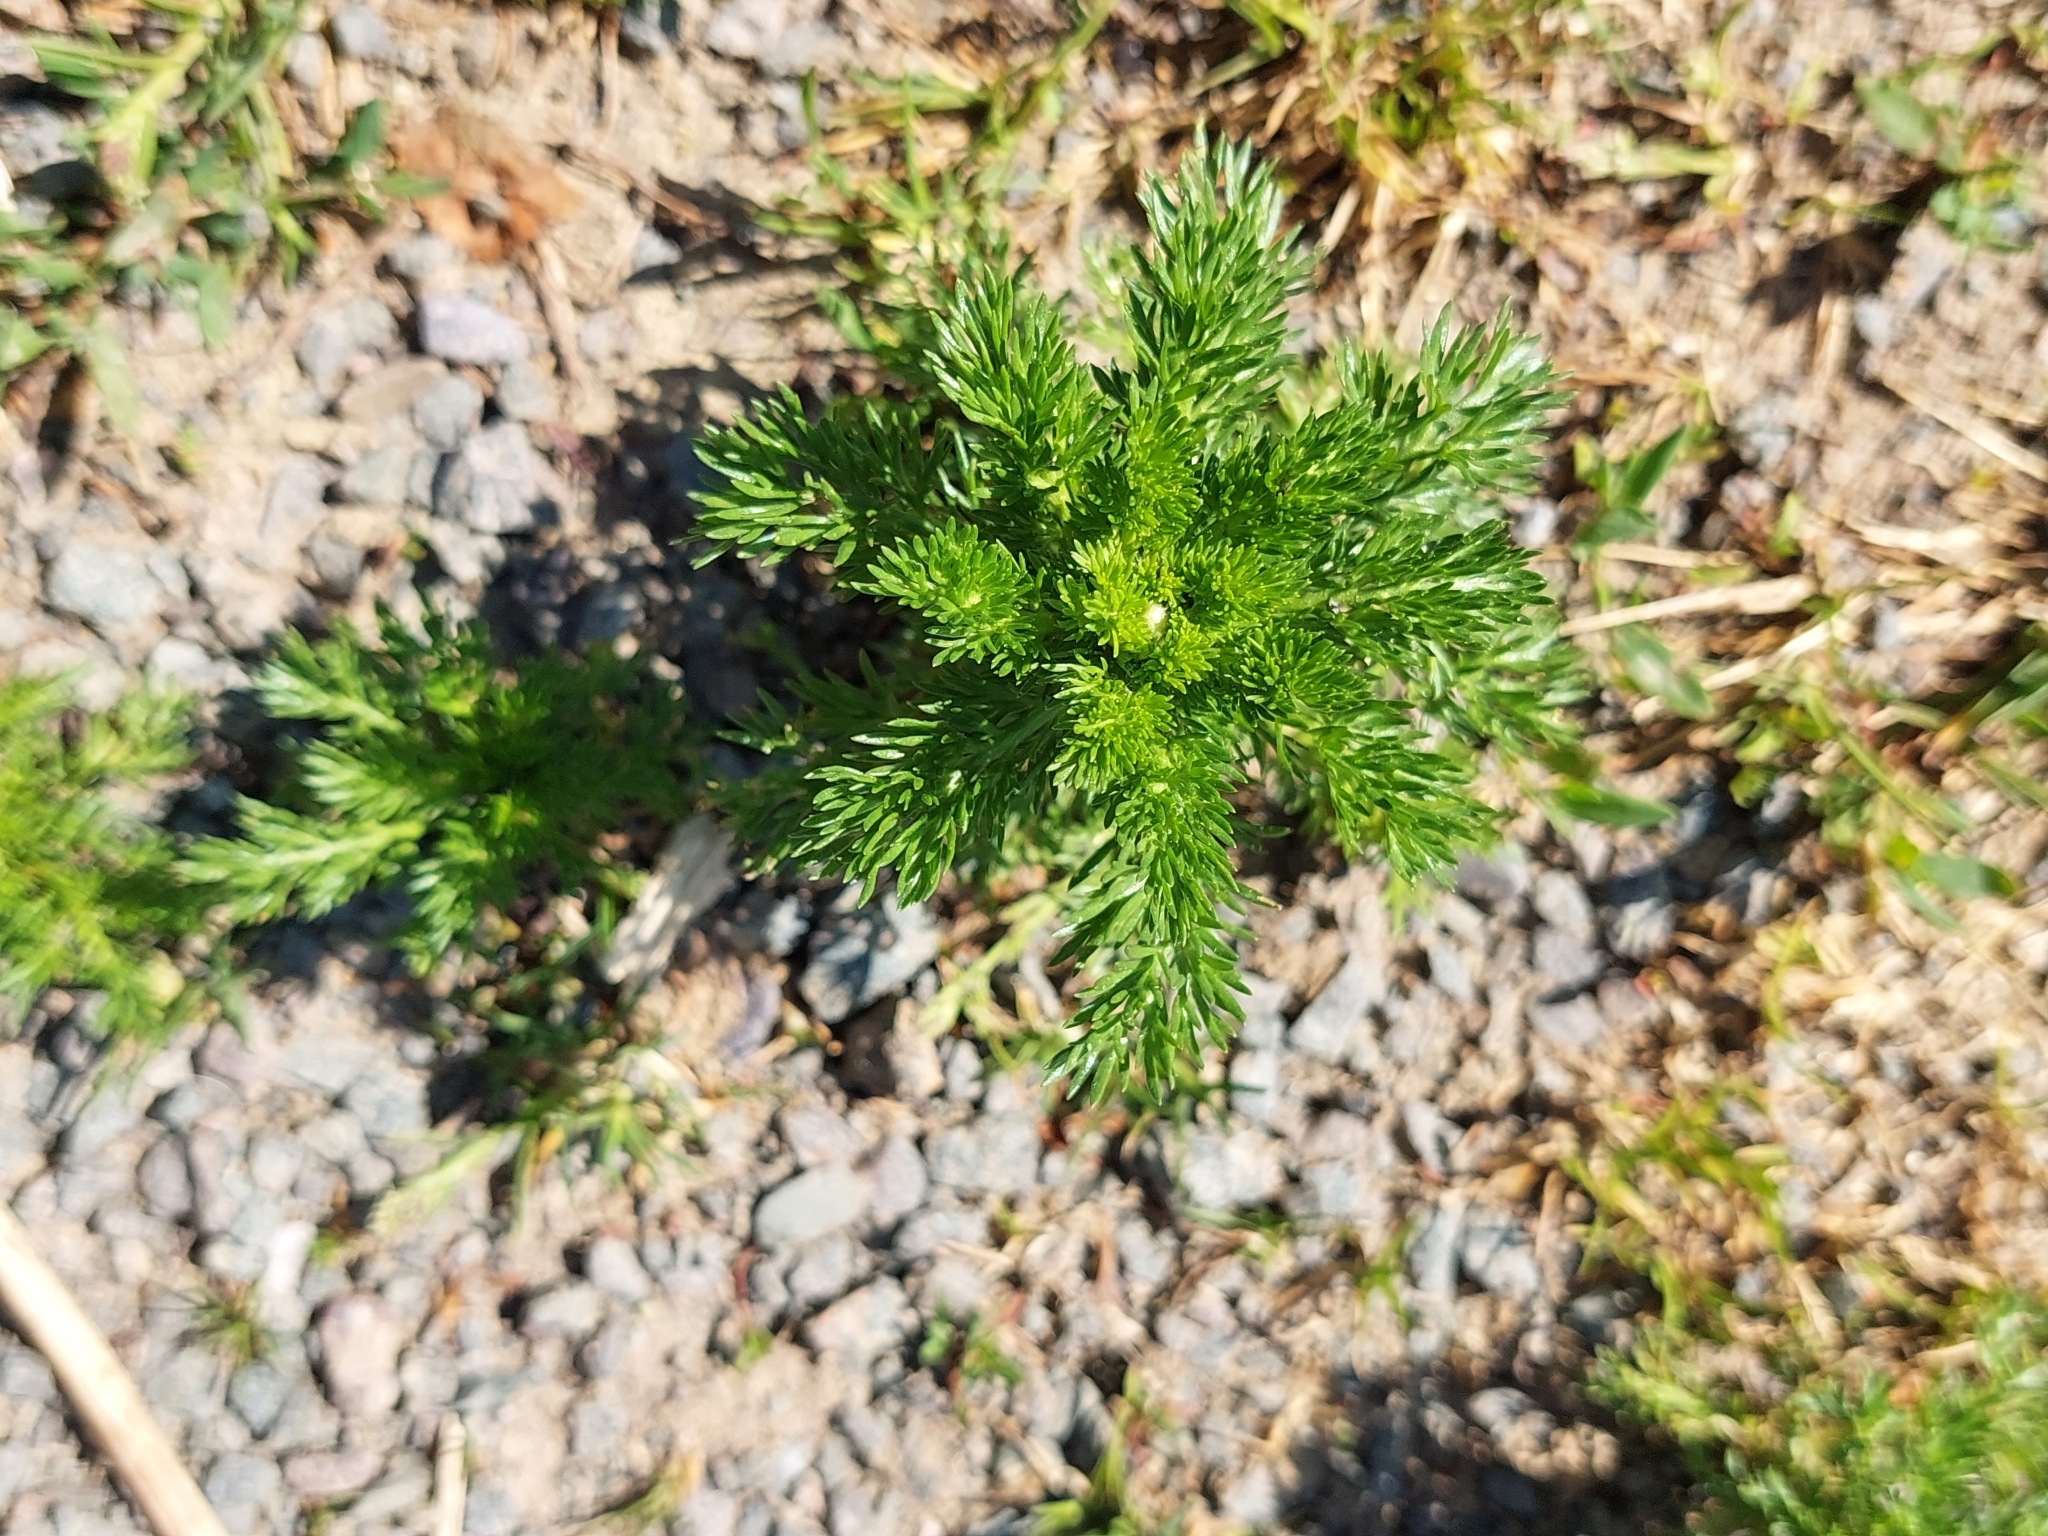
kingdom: Plantae
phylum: Tracheophyta
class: Magnoliopsida
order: Asterales
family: Asteraceae
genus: Matricaria
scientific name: Matricaria discoidea
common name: Disc mayweed
